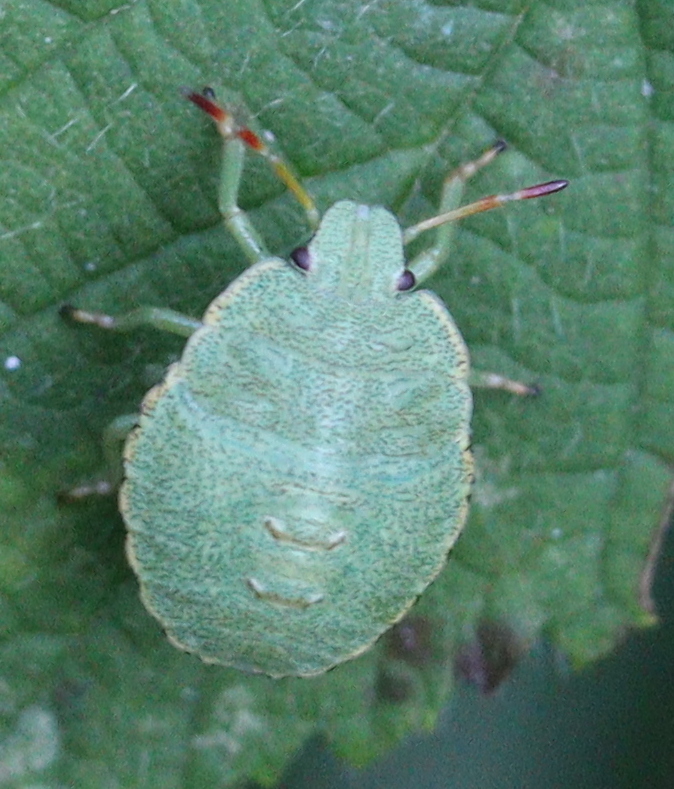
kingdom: Animalia
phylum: Arthropoda
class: Insecta
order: Hemiptera
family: Pentatomidae
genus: Palomena
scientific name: Palomena prasina
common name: Green shieldbug
